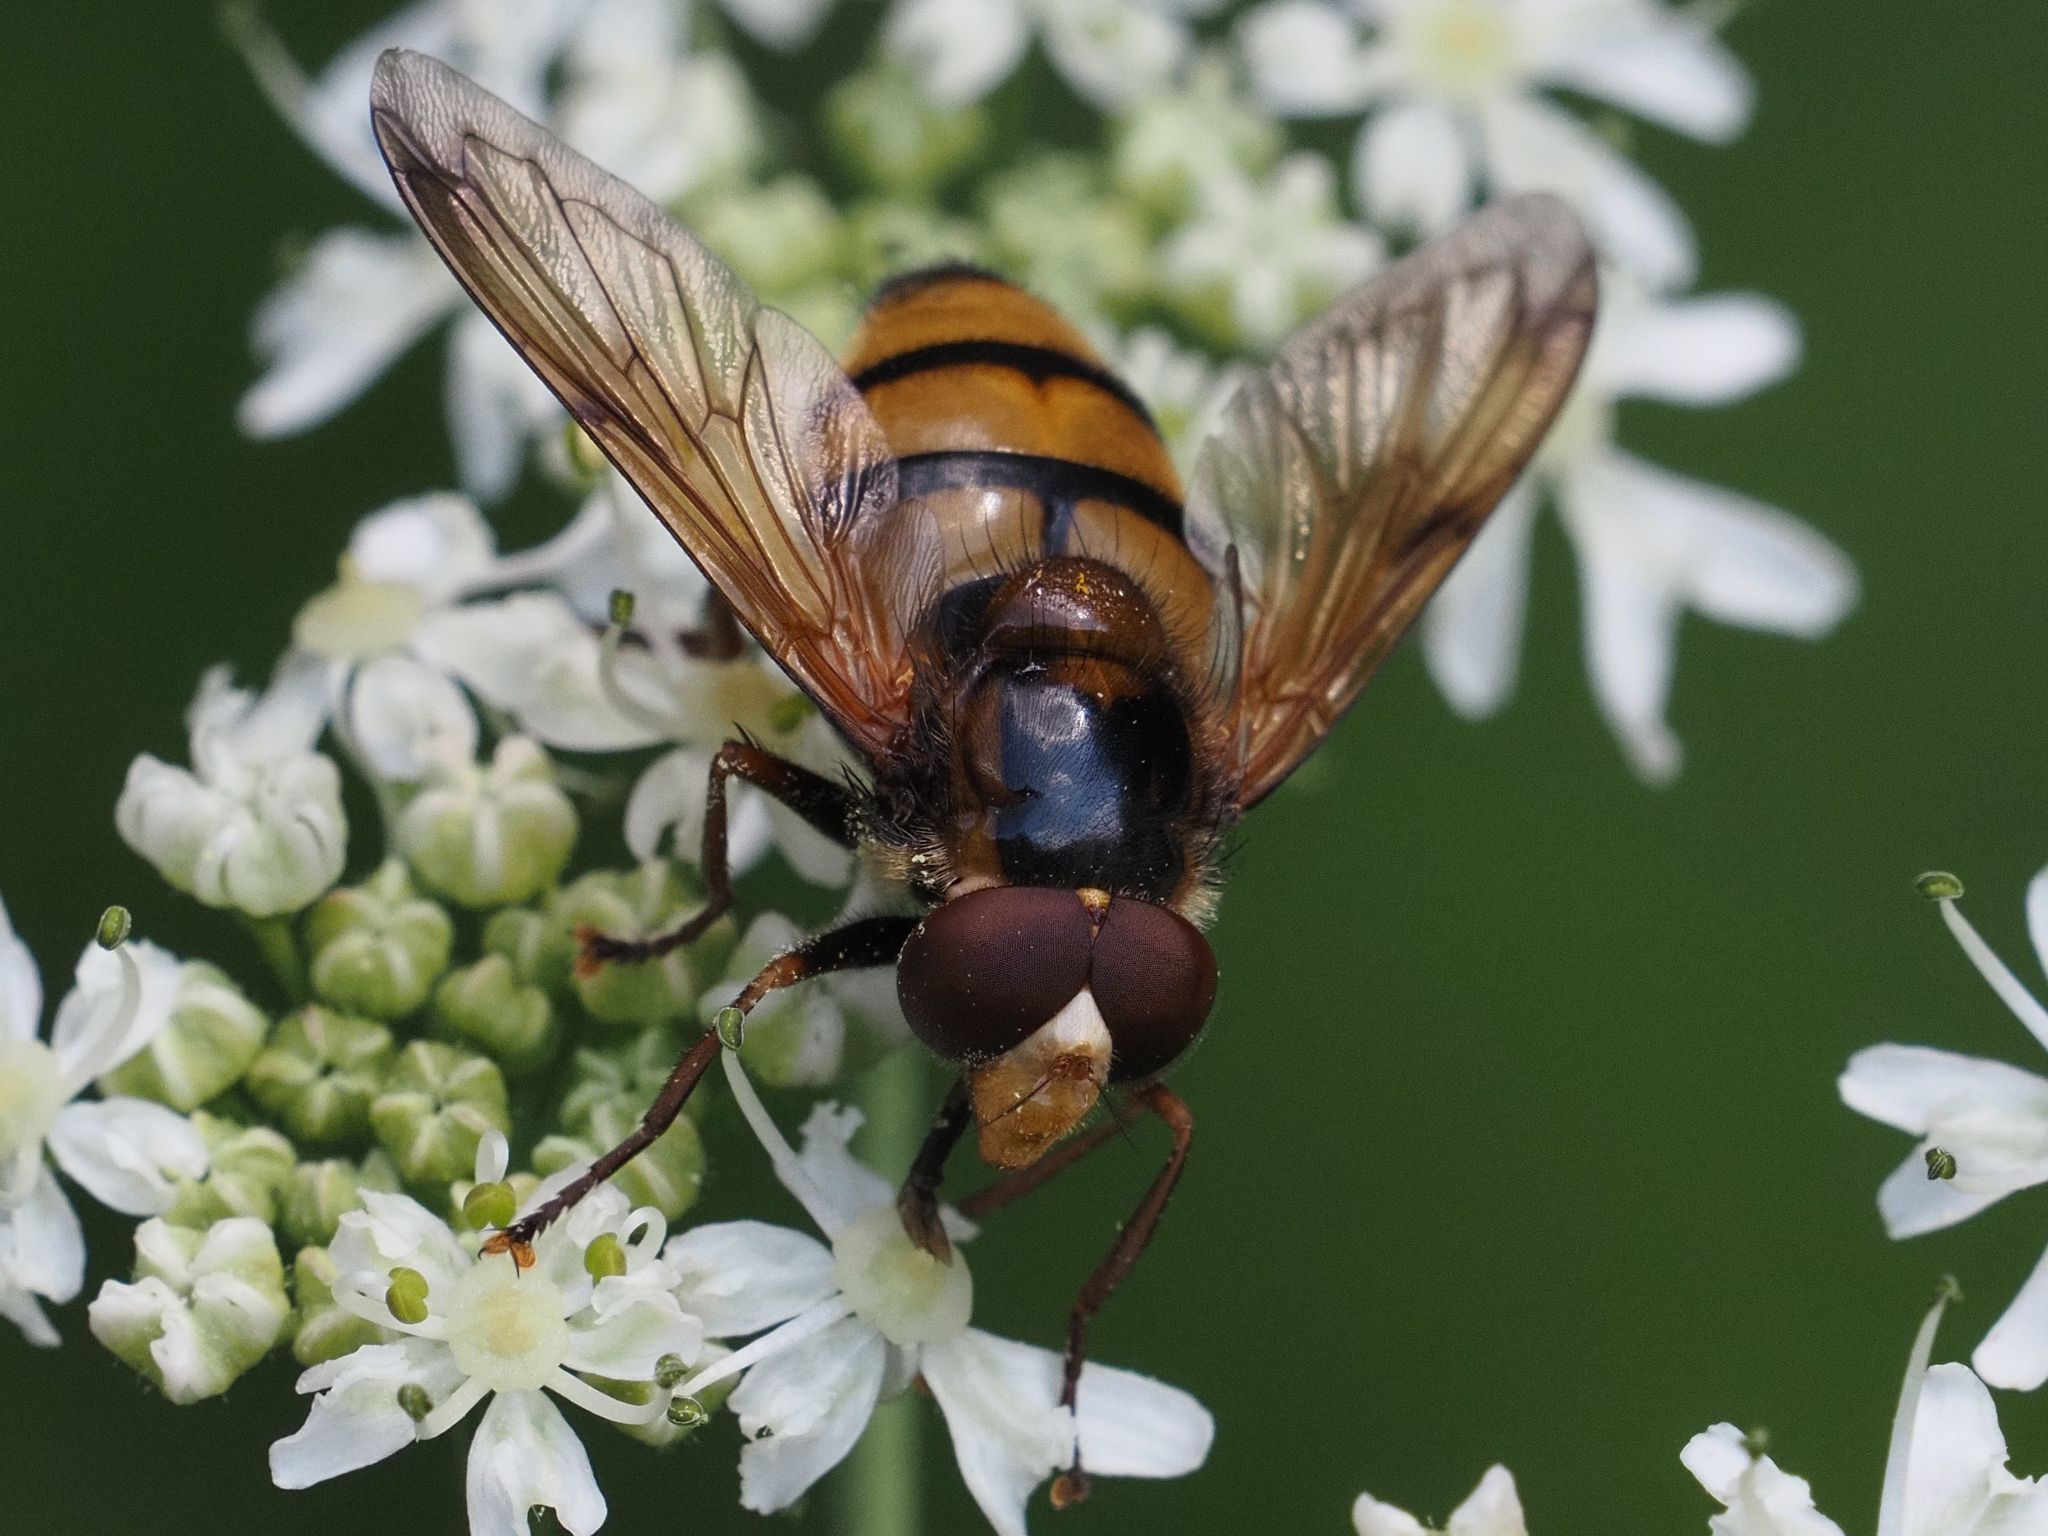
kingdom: Animalia
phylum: Arthropoda
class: Insecta
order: Diptera
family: Syrphidae
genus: Volucella
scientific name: Volucella inanis
